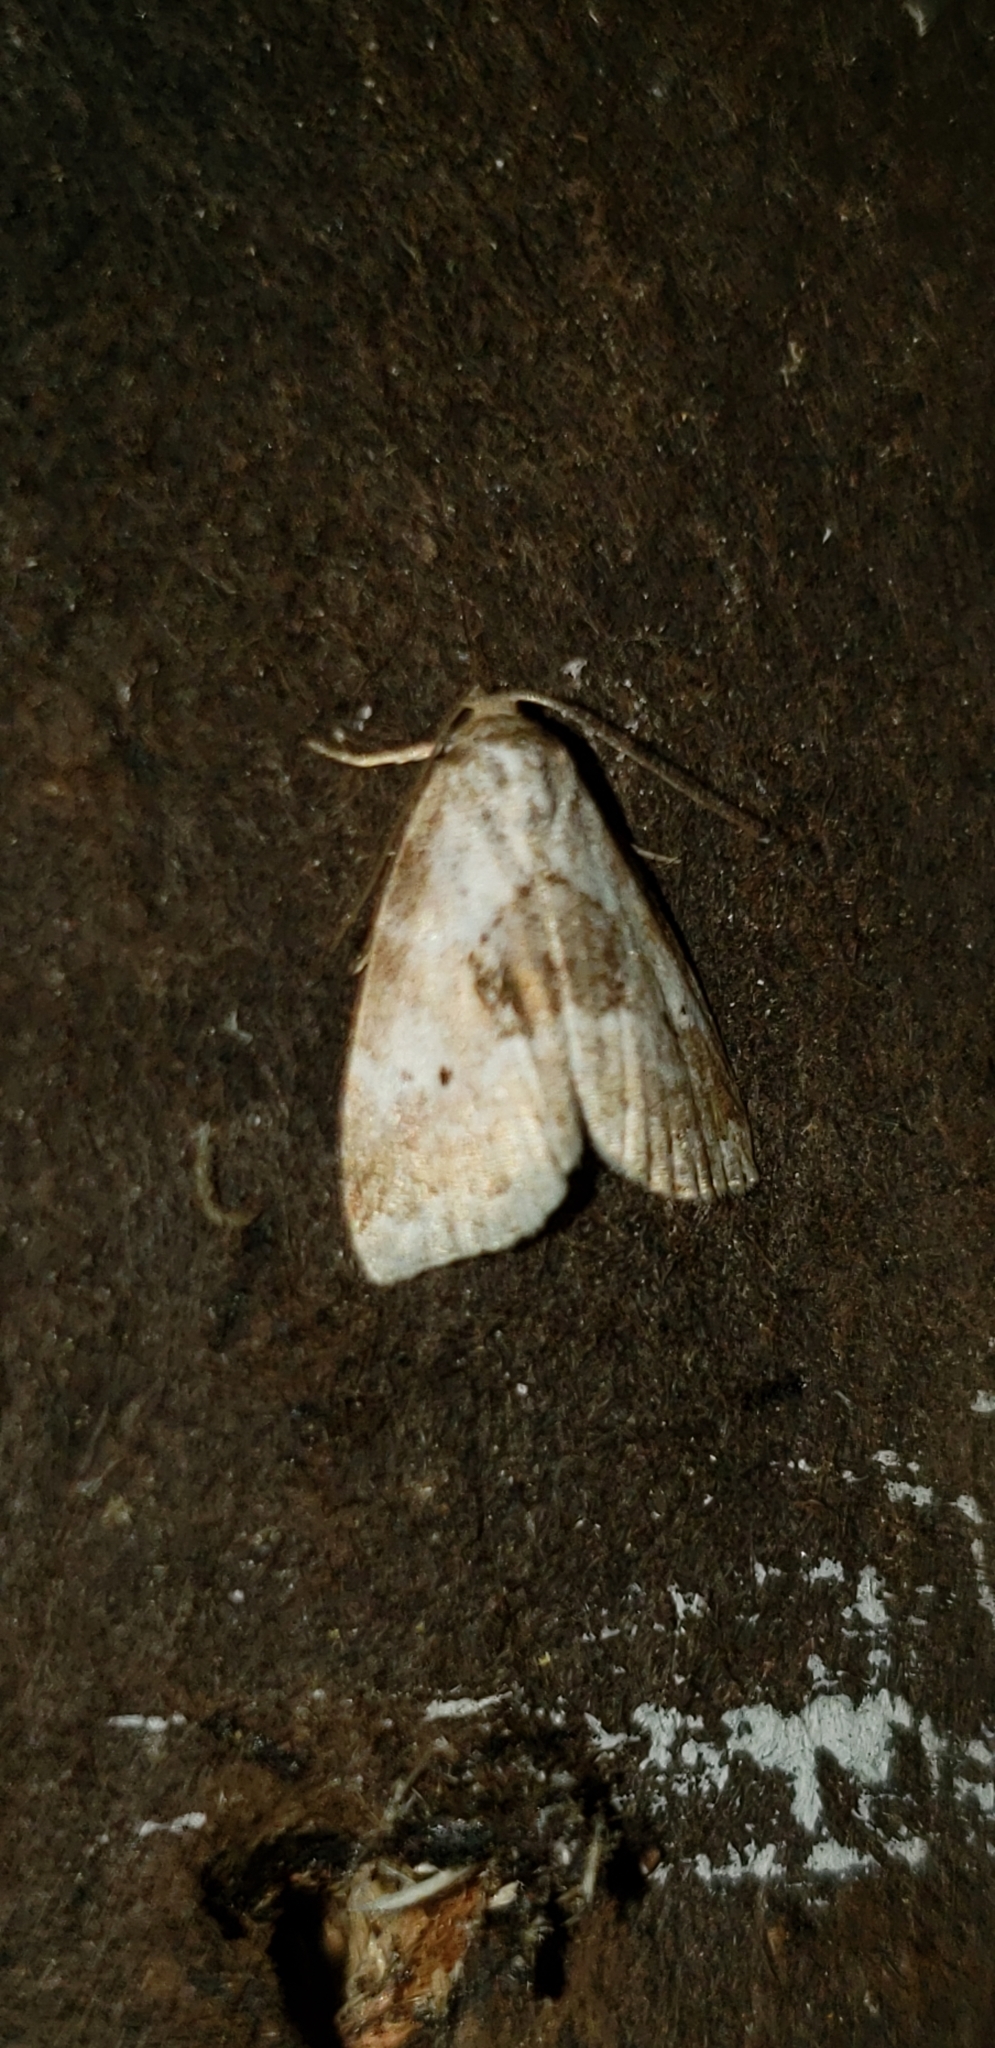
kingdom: Animalia
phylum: Arthropoda
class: Insecta
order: Lepidoptera
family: Erebidae
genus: Hyperstrotia
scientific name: Hyperstrotia secta
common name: Black-patched graylet
